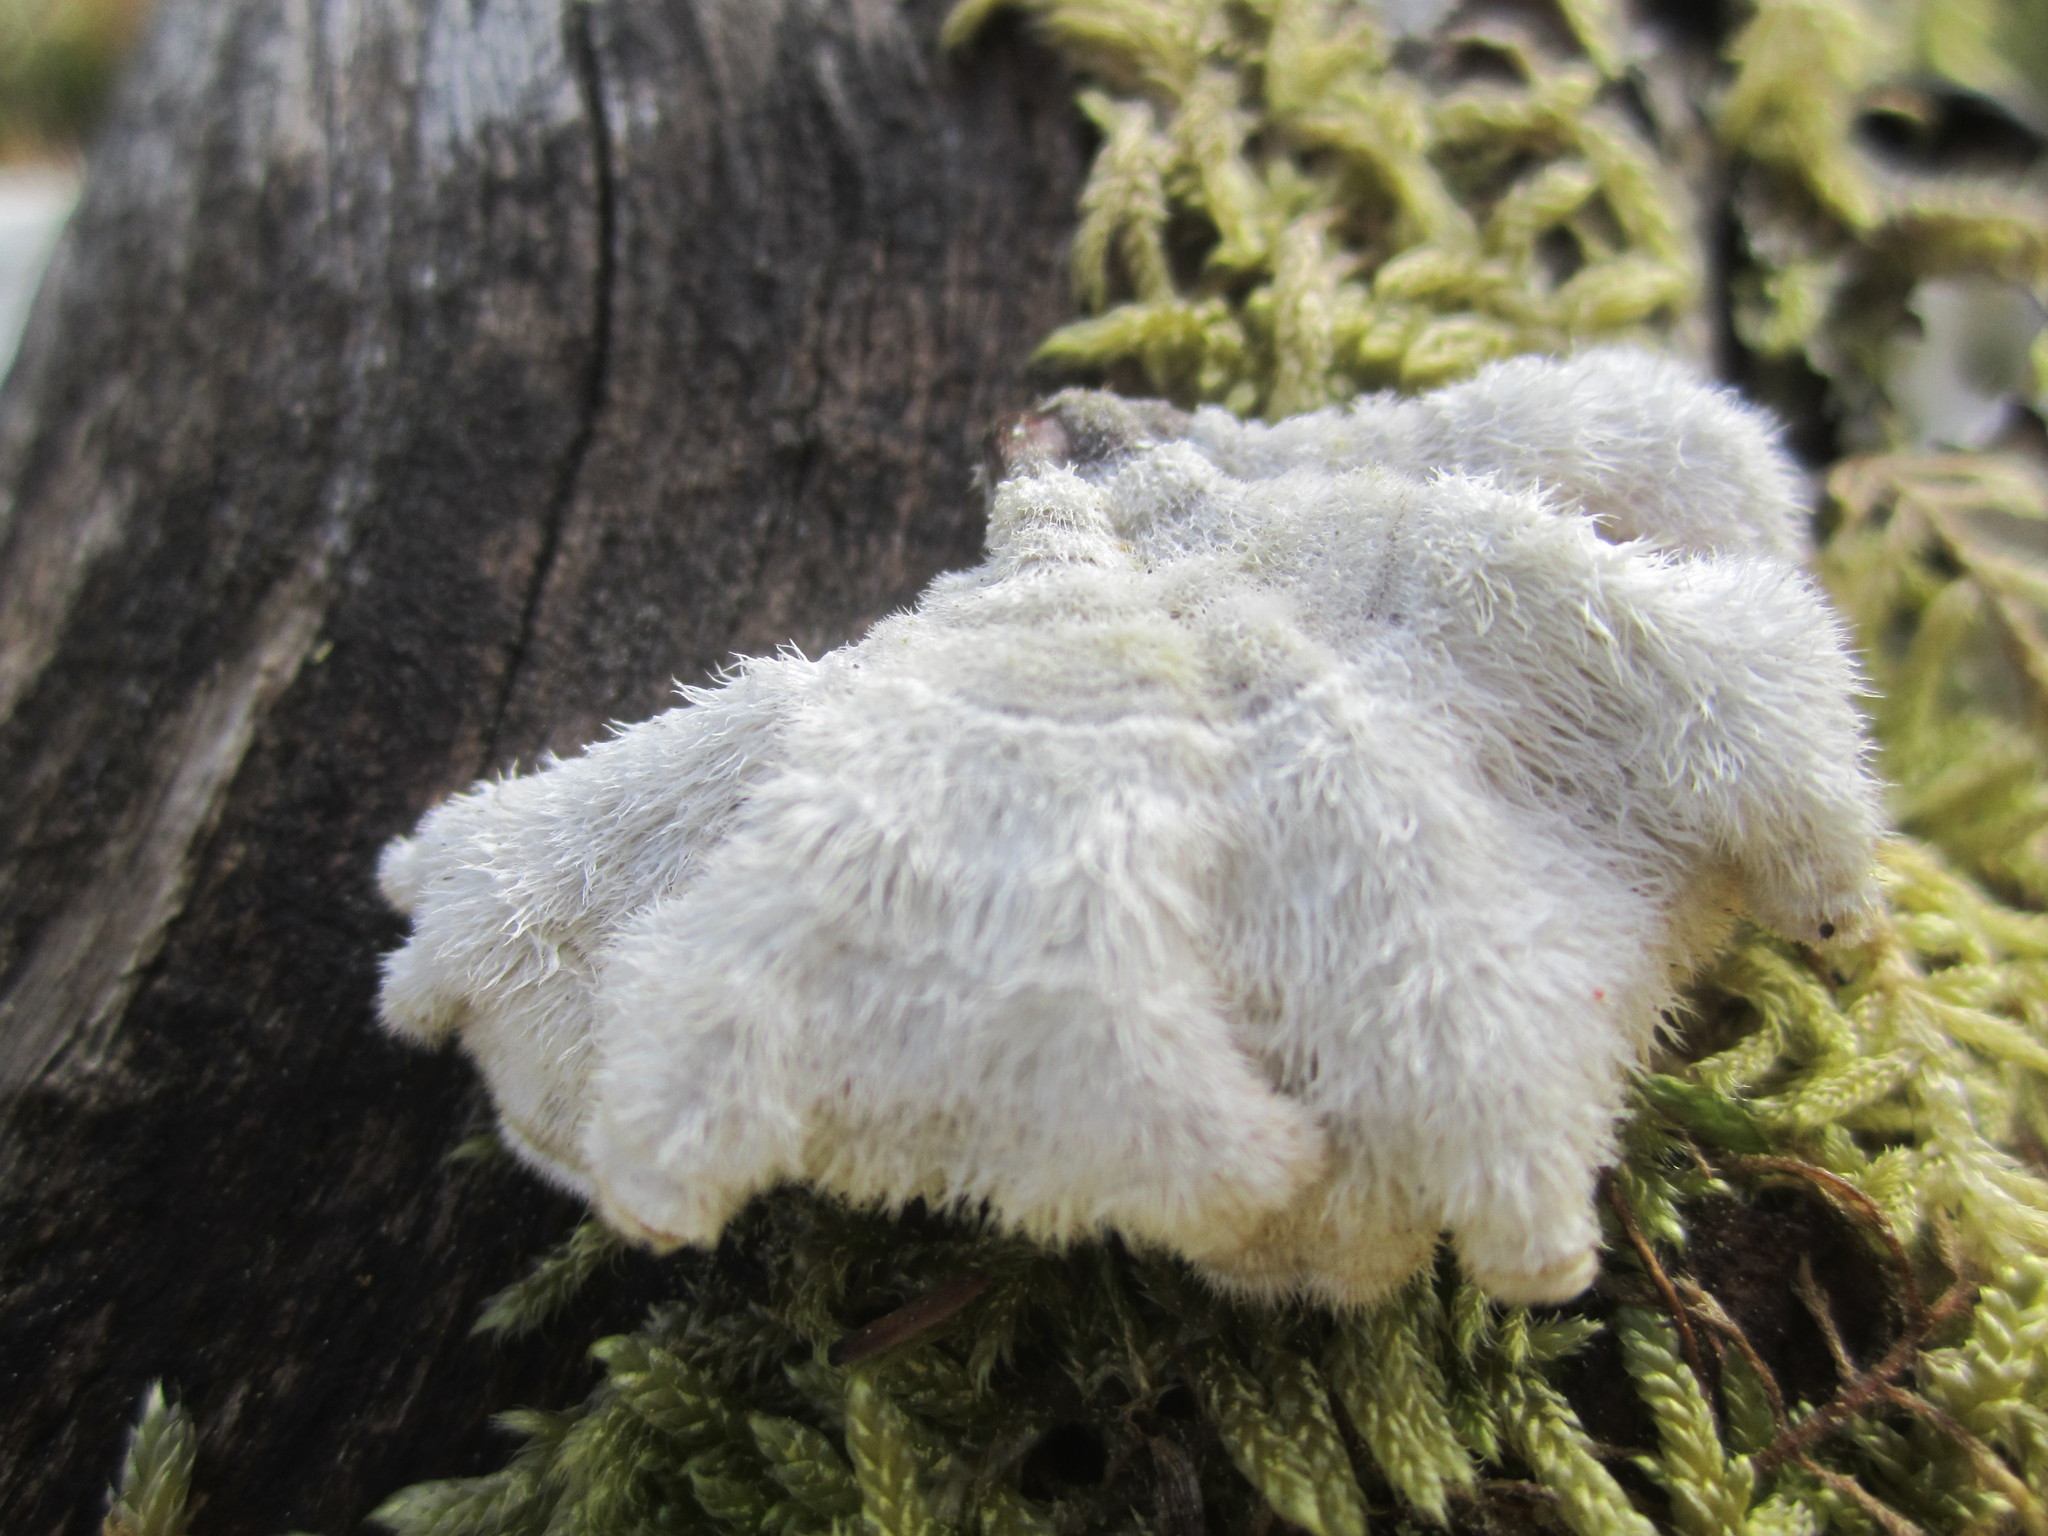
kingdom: Fungi
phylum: Basidiomycota
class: Agaricomycetes
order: Agaricales
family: Schizophyllaceae
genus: Schizophyllum
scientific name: Schizophyllum commune
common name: Common porecrust
